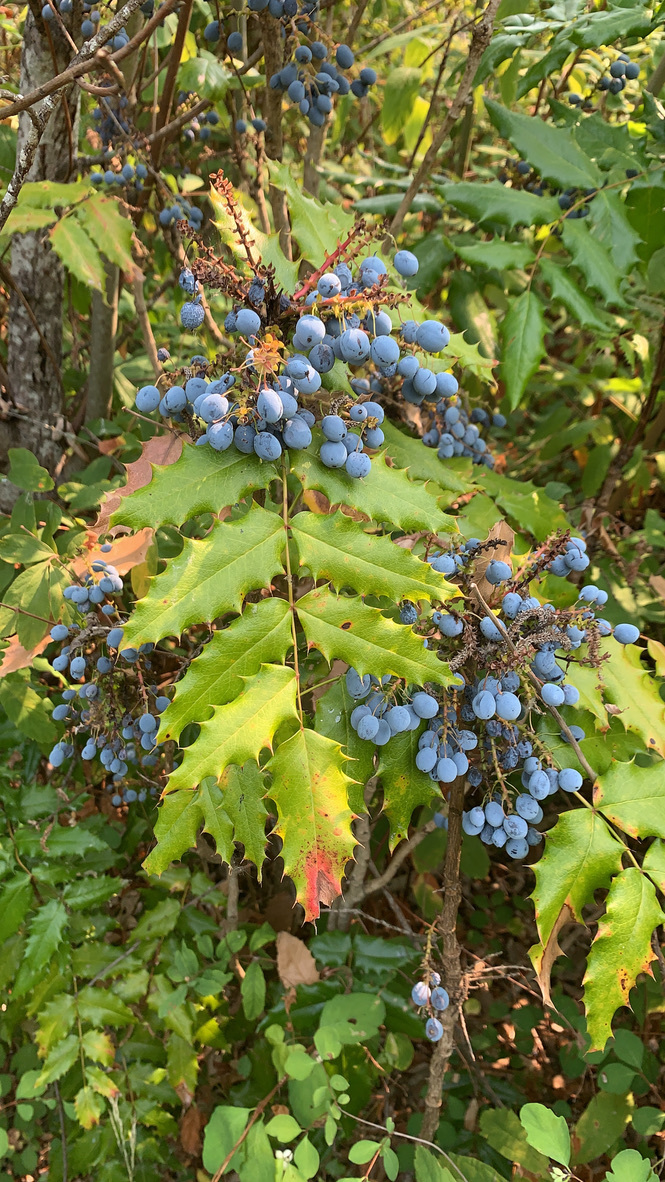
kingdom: Plantae
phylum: Tracheophyta
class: Magnoliopsida
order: Ranunculales
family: Berberidaceae
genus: Mahonia
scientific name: Mahonia aquifolium
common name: Oregon-grape
